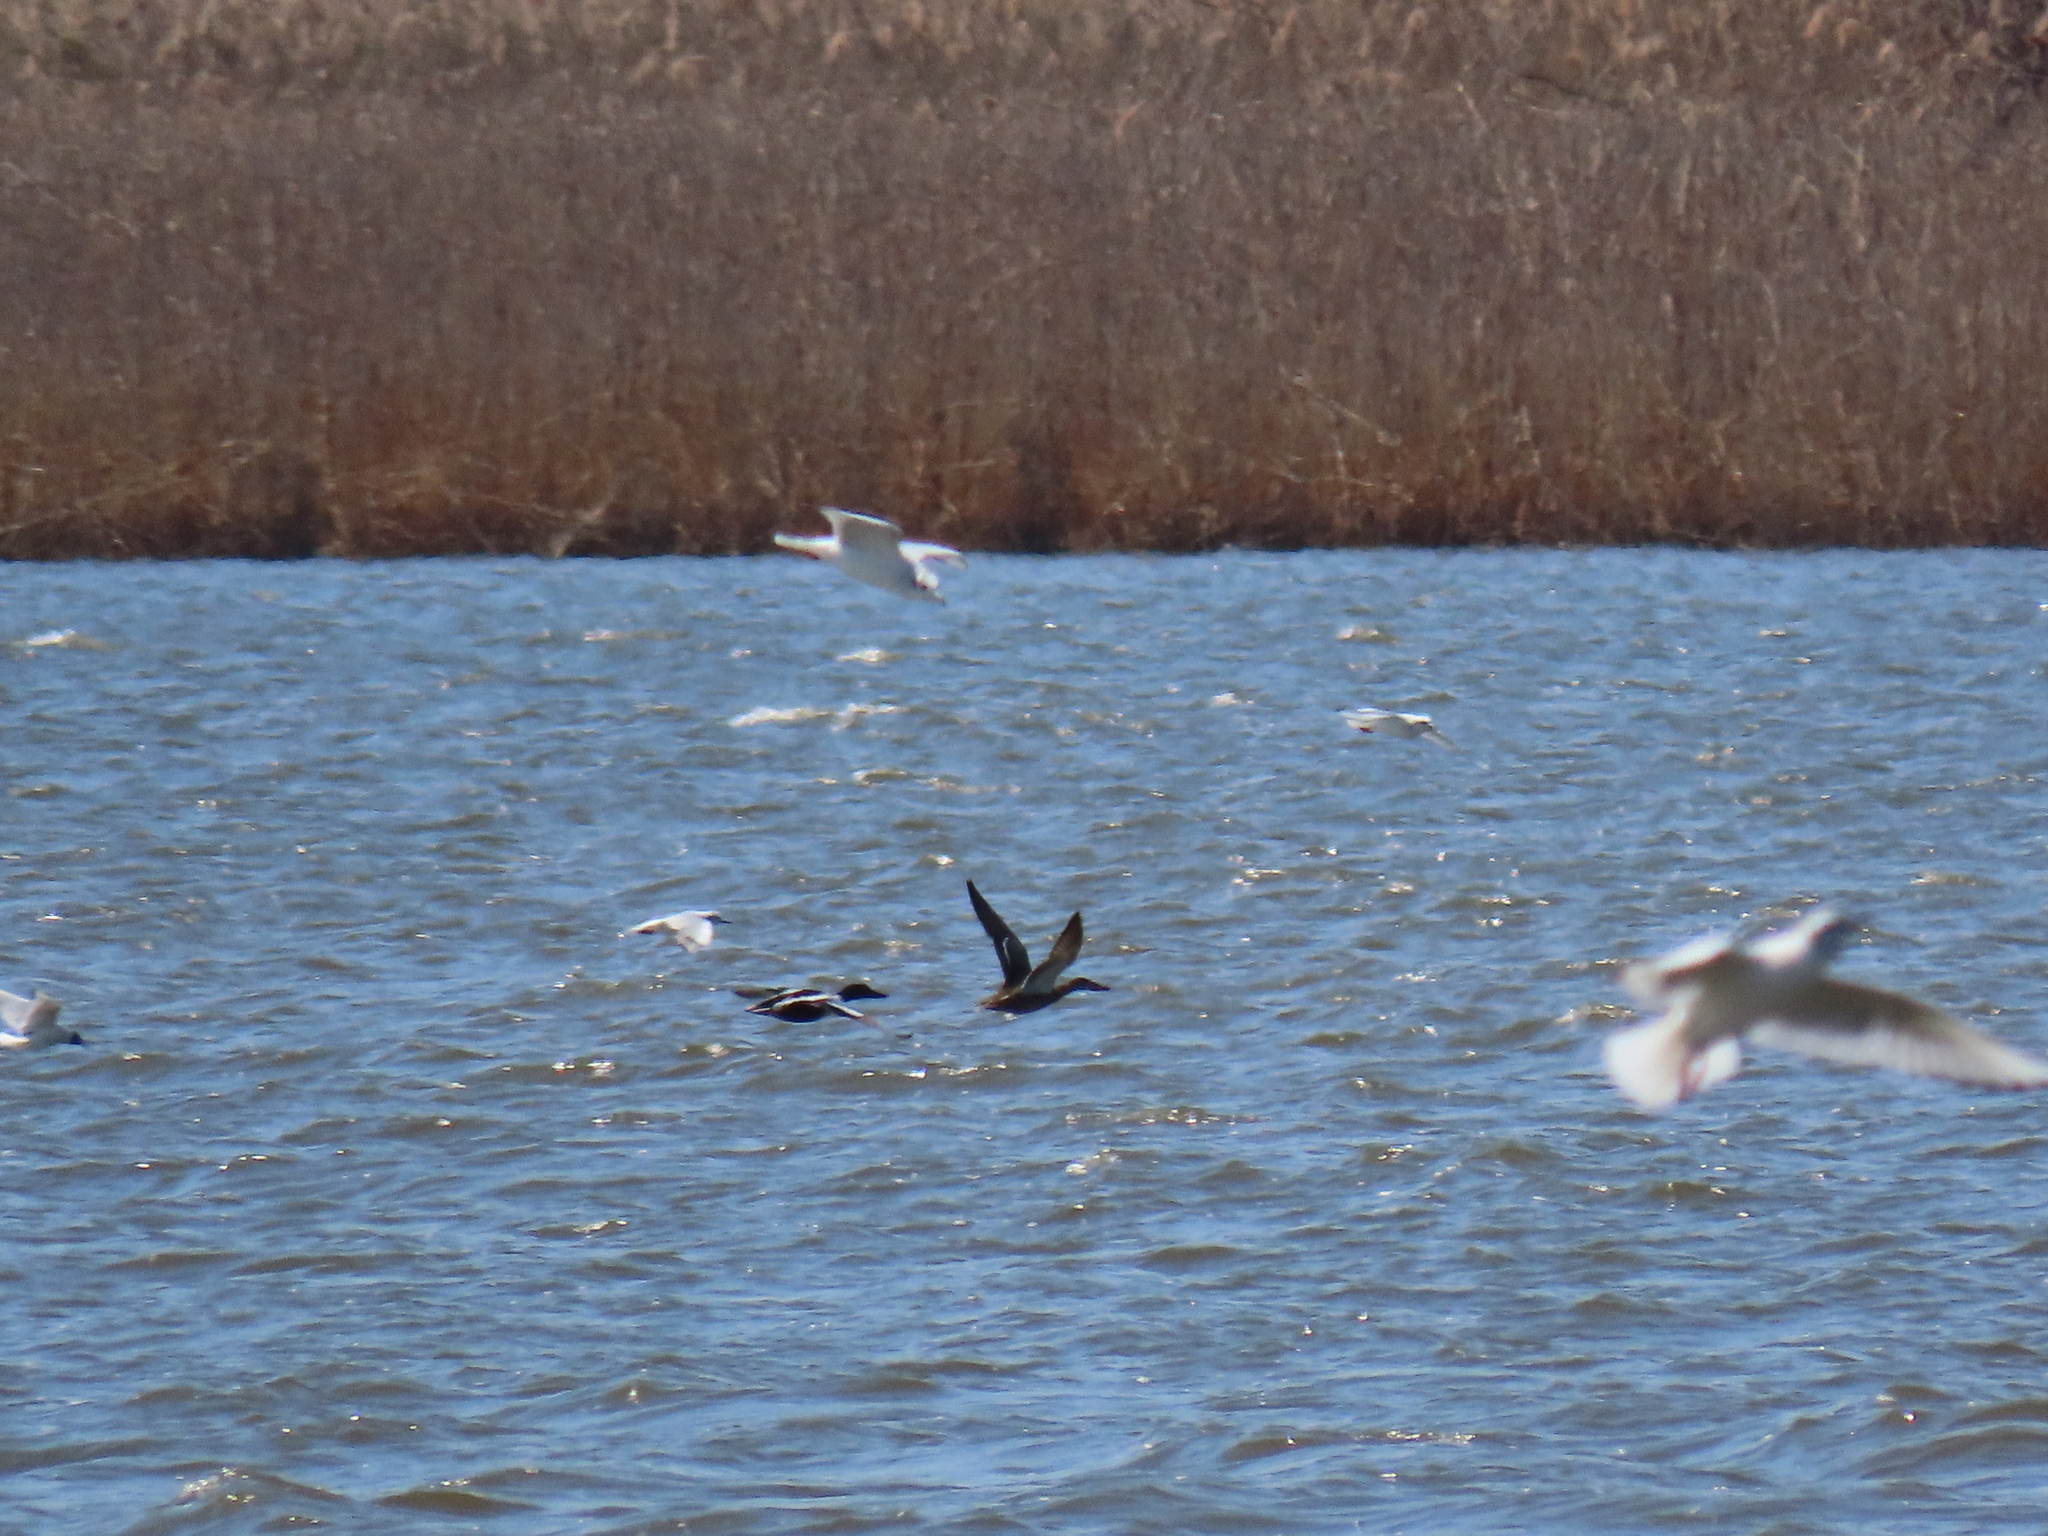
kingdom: Animalia
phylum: Chordata
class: Aves
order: Anseriformes
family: Anatidae
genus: Spatula
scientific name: Spatula clypeata
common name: Northern shoveler
